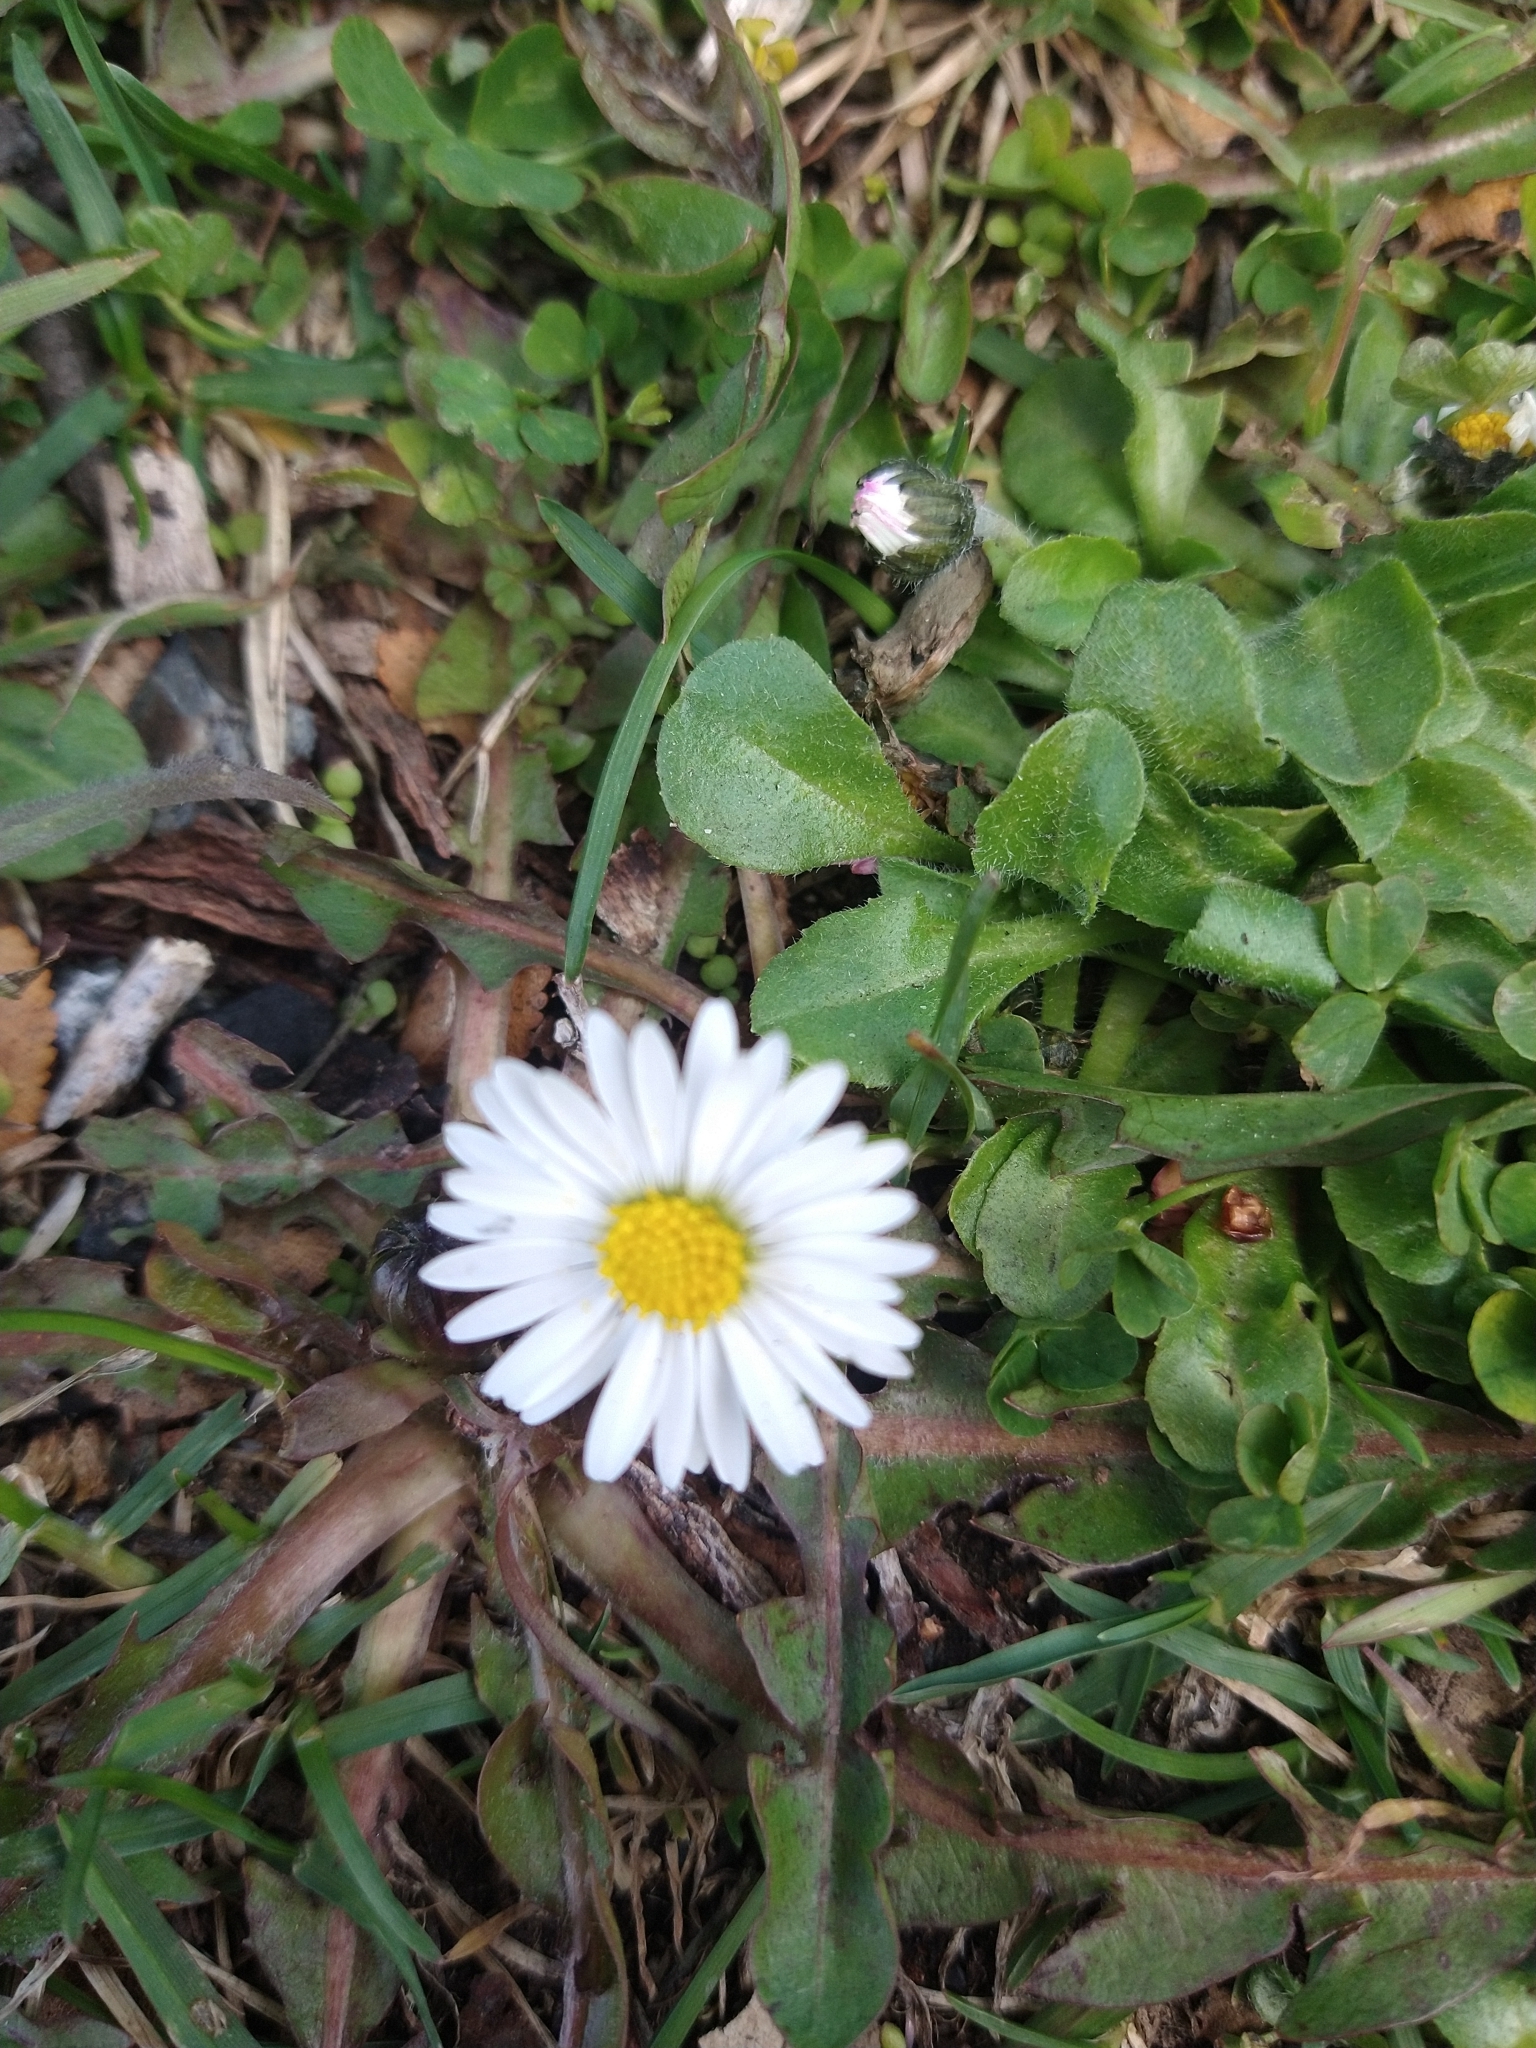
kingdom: Plantae
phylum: Tracheophyta
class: Magnoliopsida
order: Asterales
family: Asteraceae
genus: Bellis
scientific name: Bellis perennis
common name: Lawndaisy
